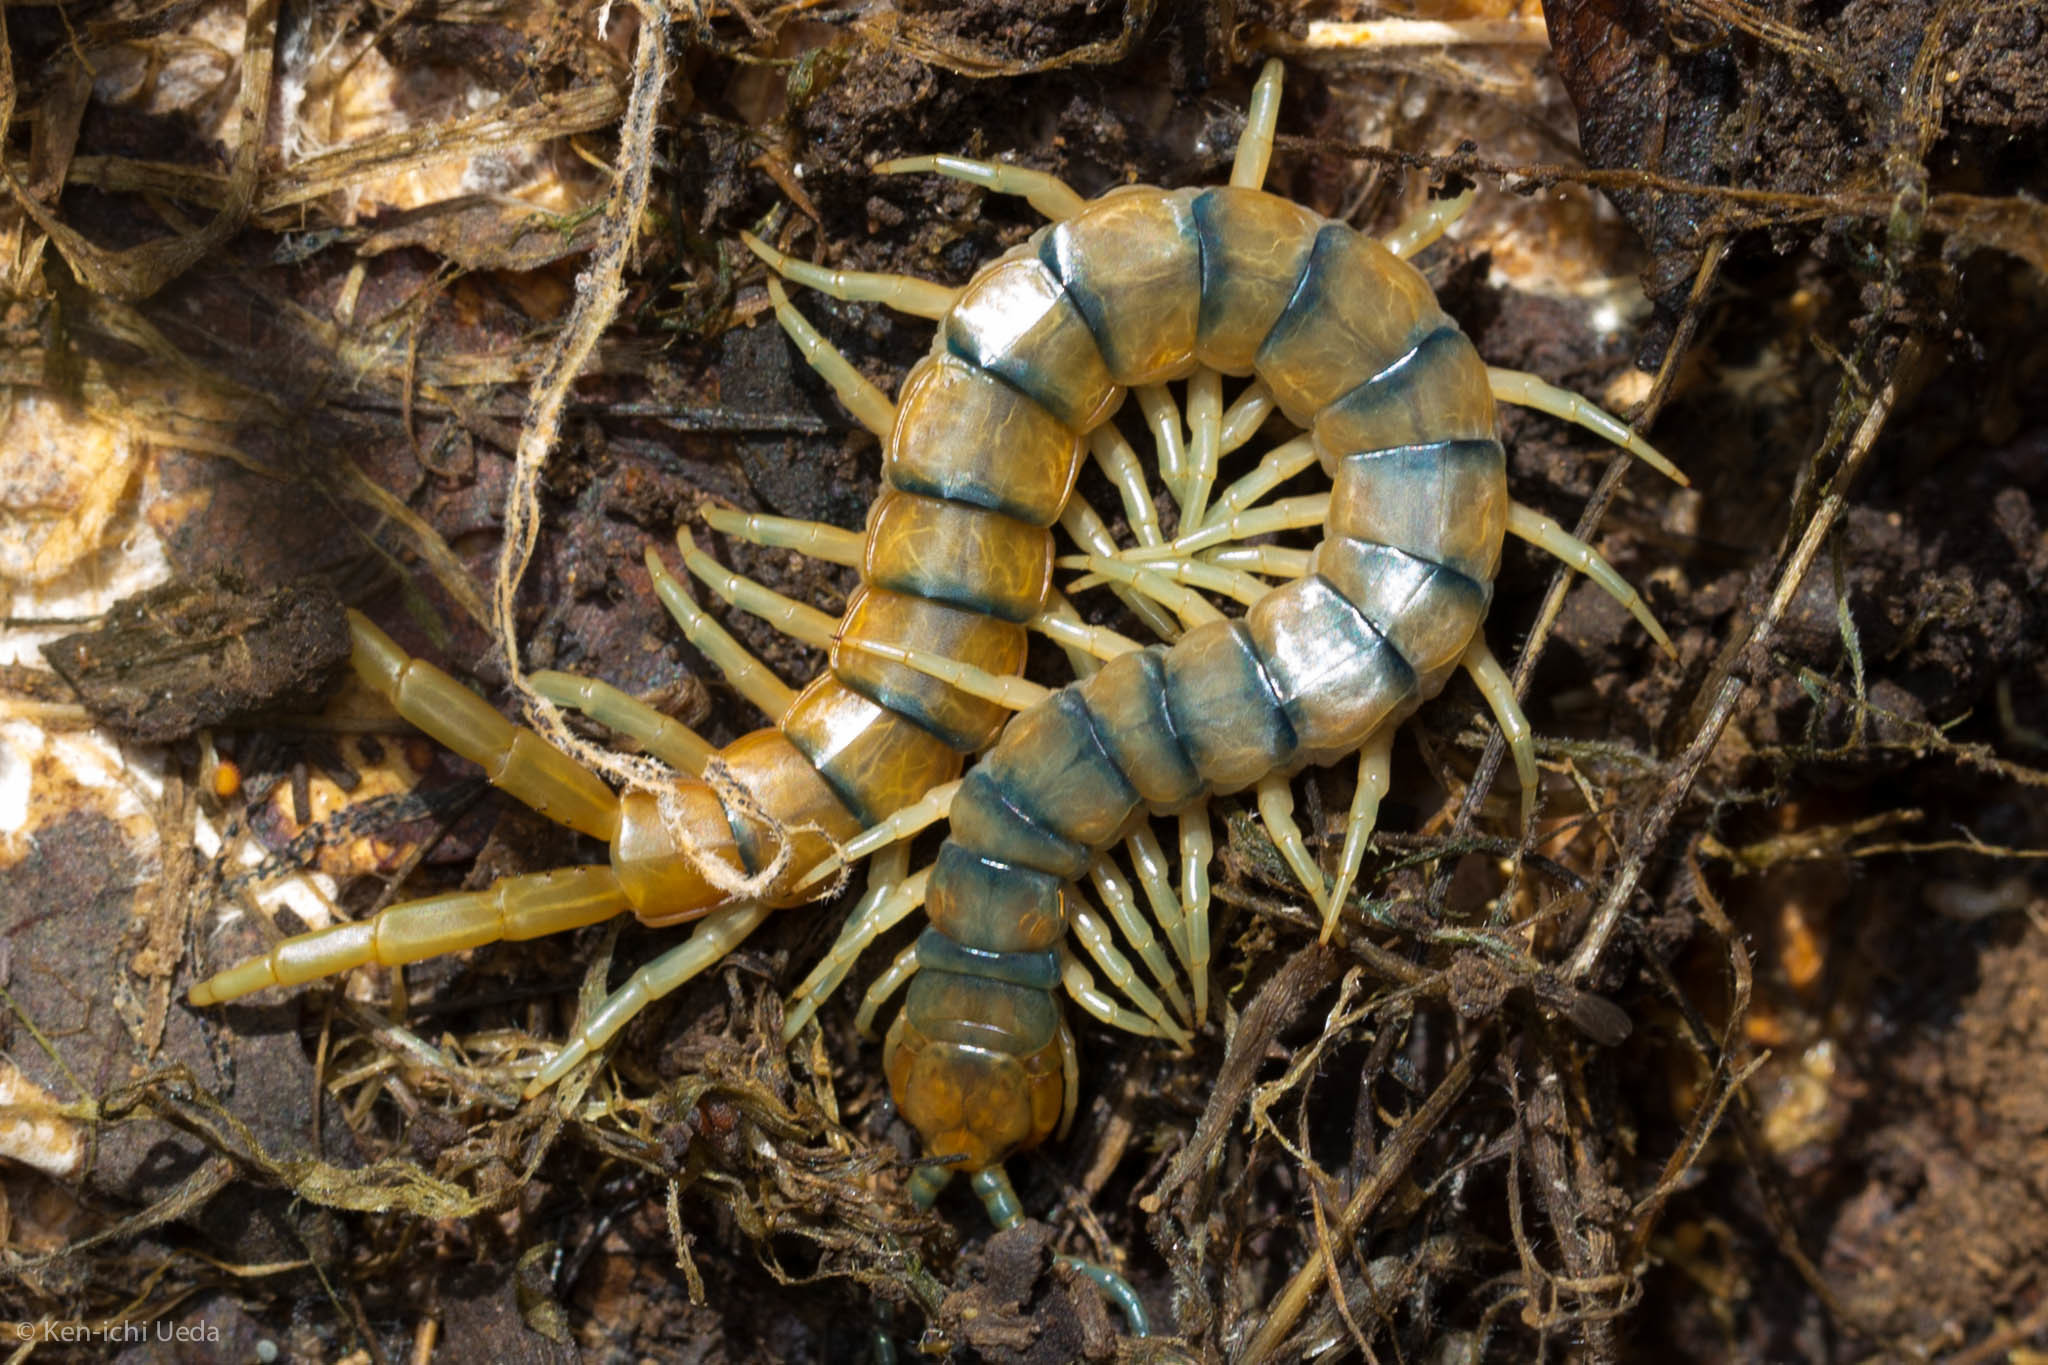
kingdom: Animalia
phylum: Arthropoda
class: Chilopoda
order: Scolopendromorpha
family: Scolopendridae
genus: Scolopendra
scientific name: Scolopendra polymorpha
